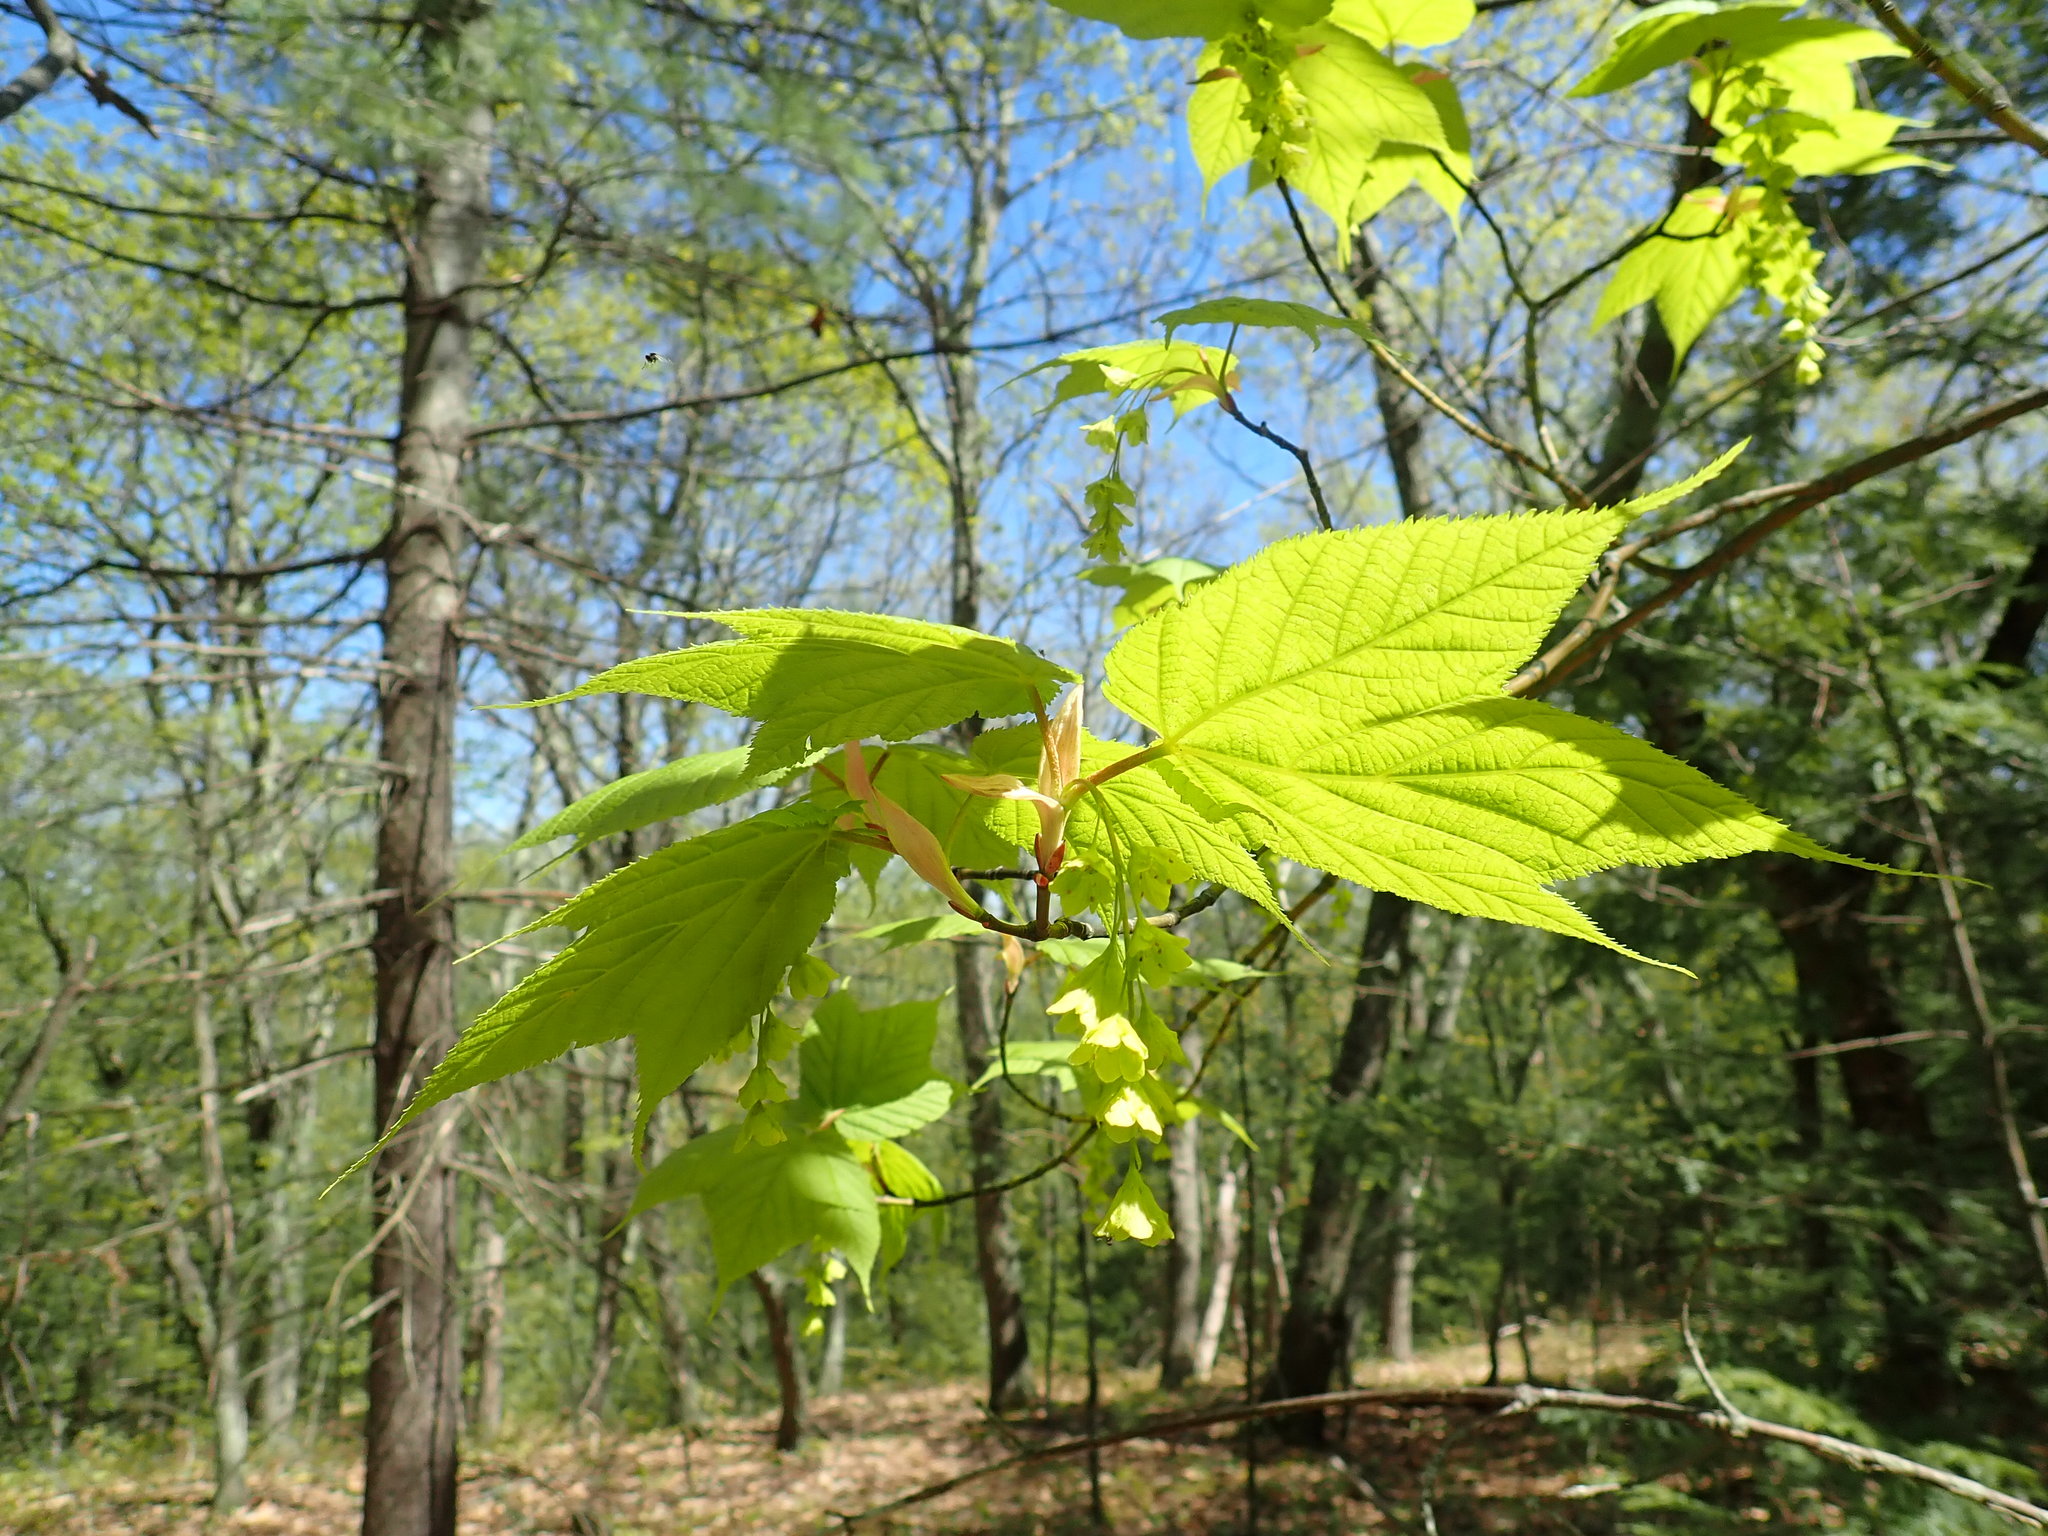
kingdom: Plantae
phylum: Tracheophyta
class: Magnoliopsida
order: Sapindales
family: Sapindaceae
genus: Acer
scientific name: Acer pensylvanicum
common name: Moosewood
